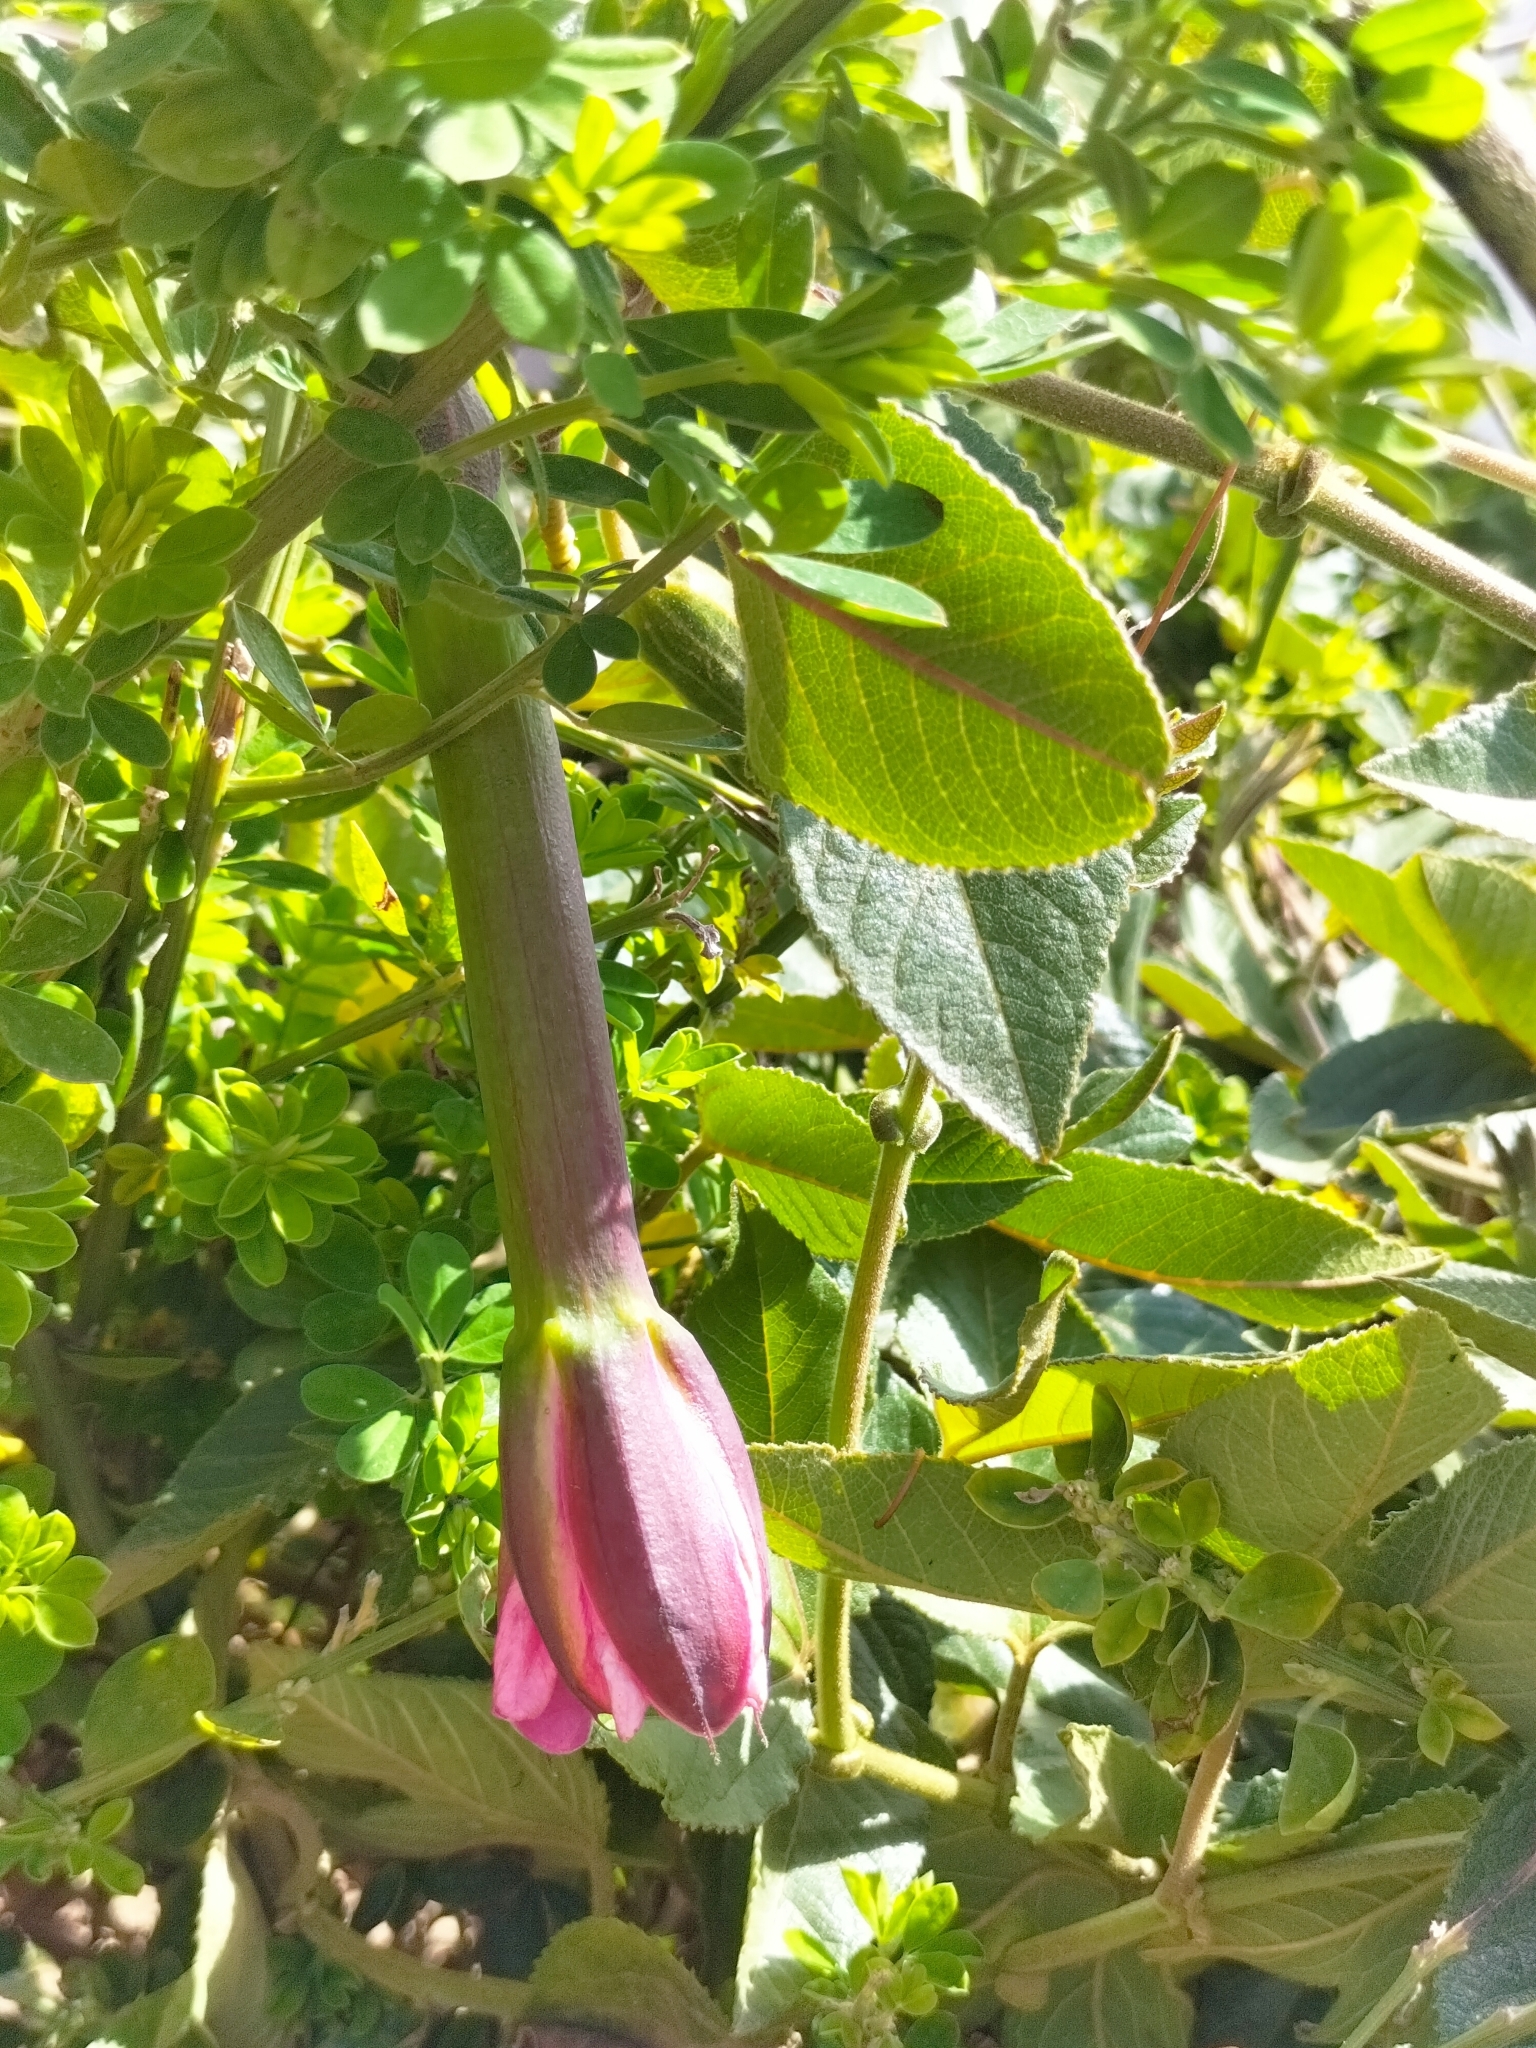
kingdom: Plantae
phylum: Tracheophyta
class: Magnoliopsida
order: Malpighiales
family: Passifloraceae
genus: Passiflora
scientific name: Passiflora tripartita
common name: Banana poka
